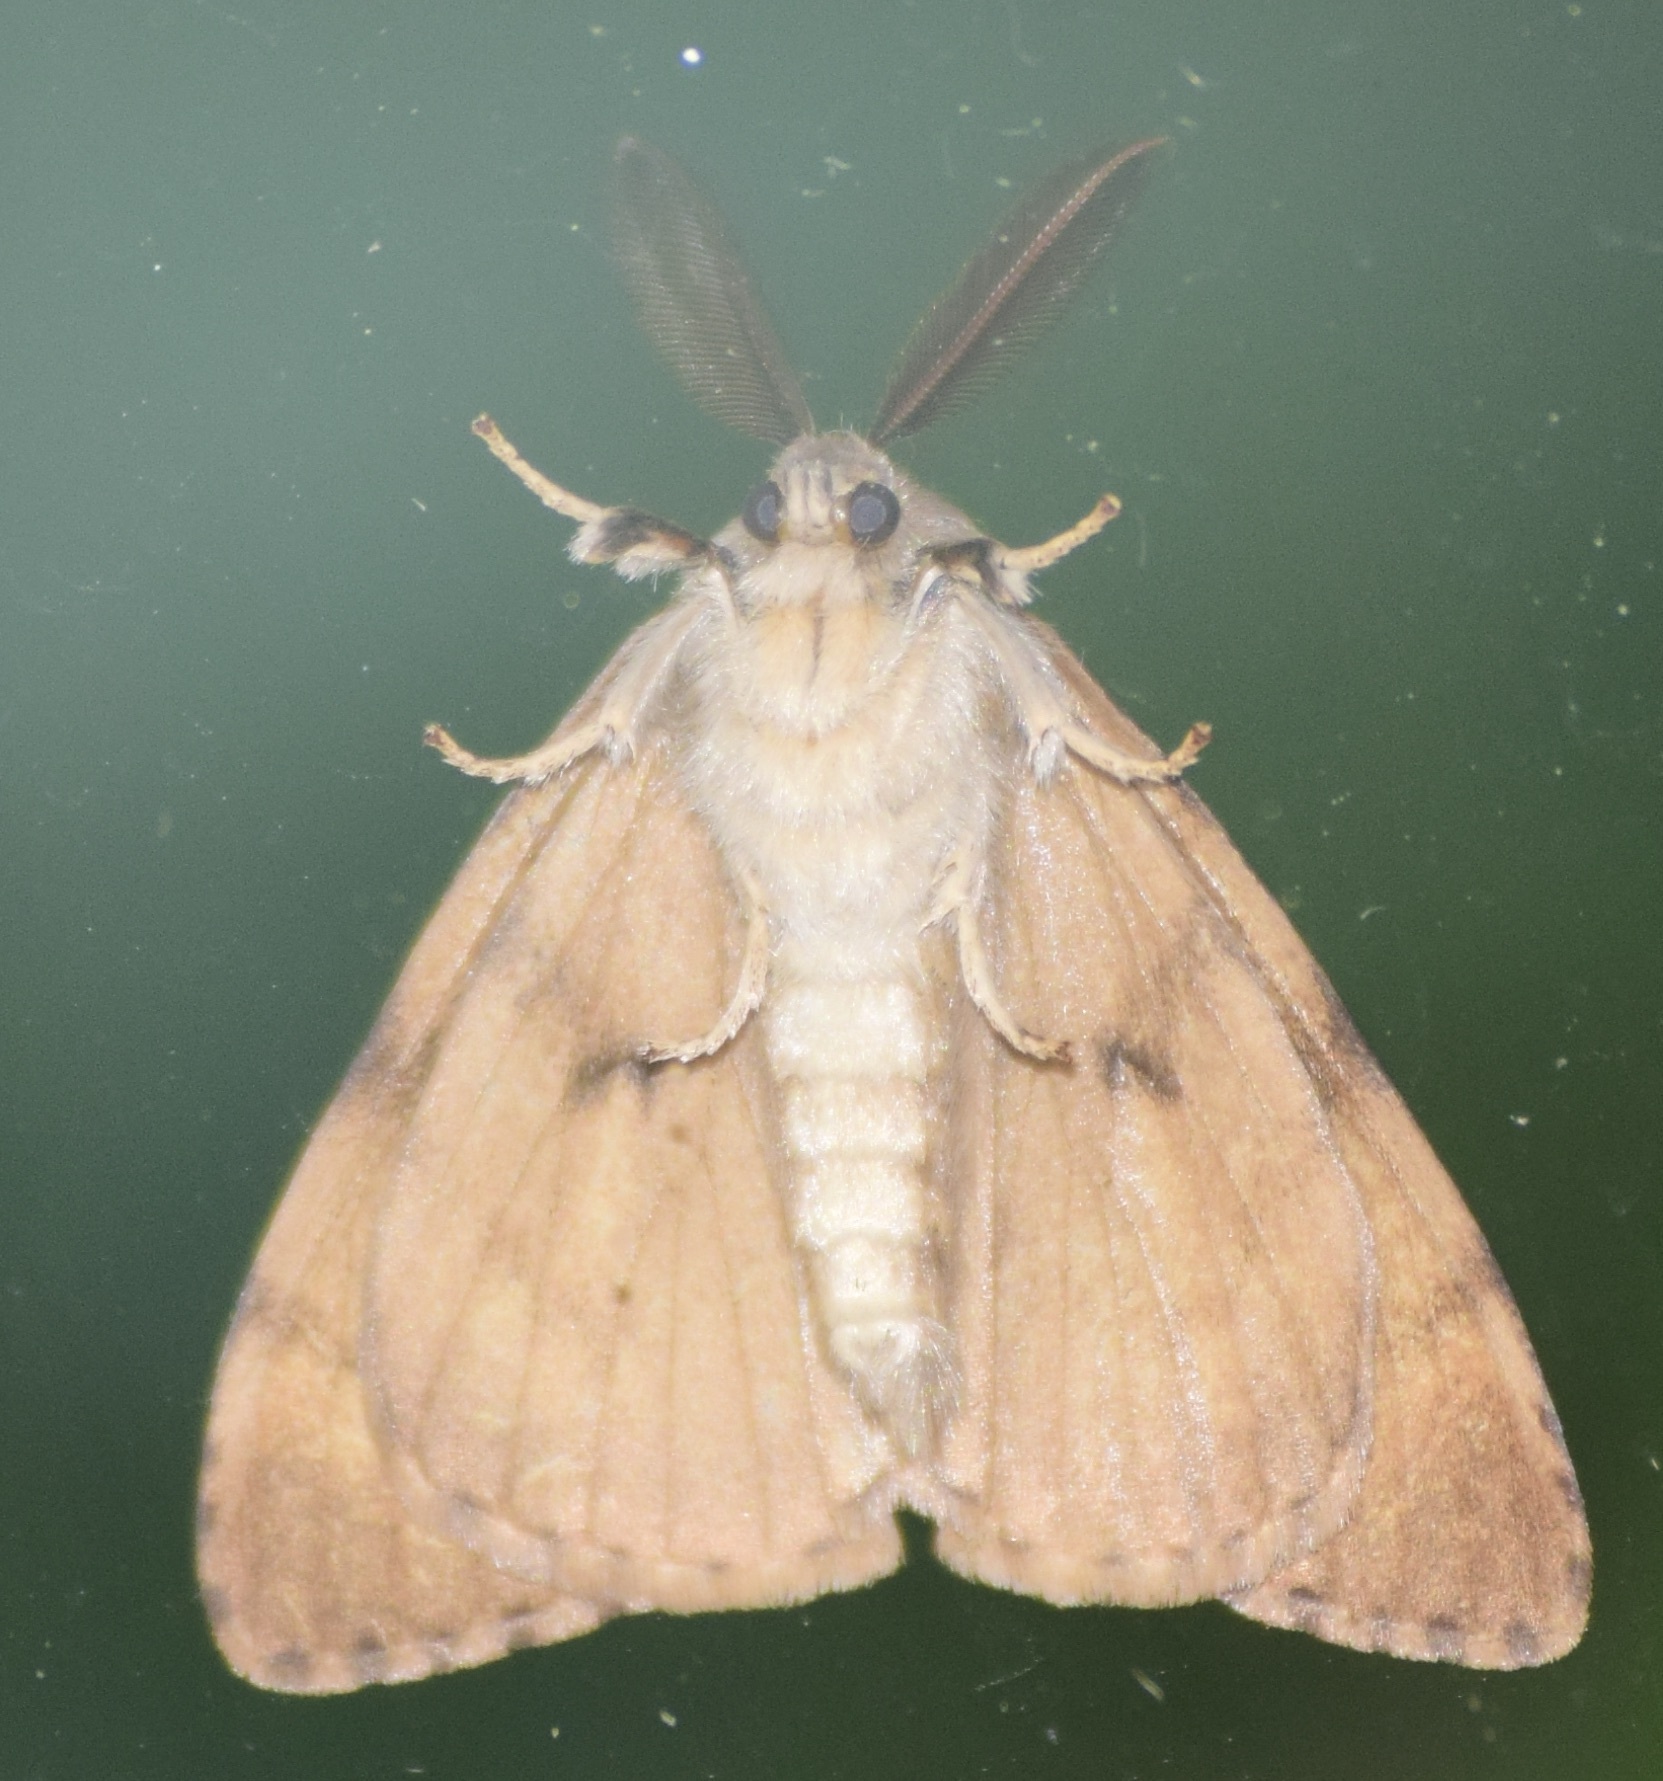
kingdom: Animalia
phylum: Arthropoda
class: Insecta
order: Lepidoptera
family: Erebidae
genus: Lymantria
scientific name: Lymantria dispar
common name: Gypsy moth
